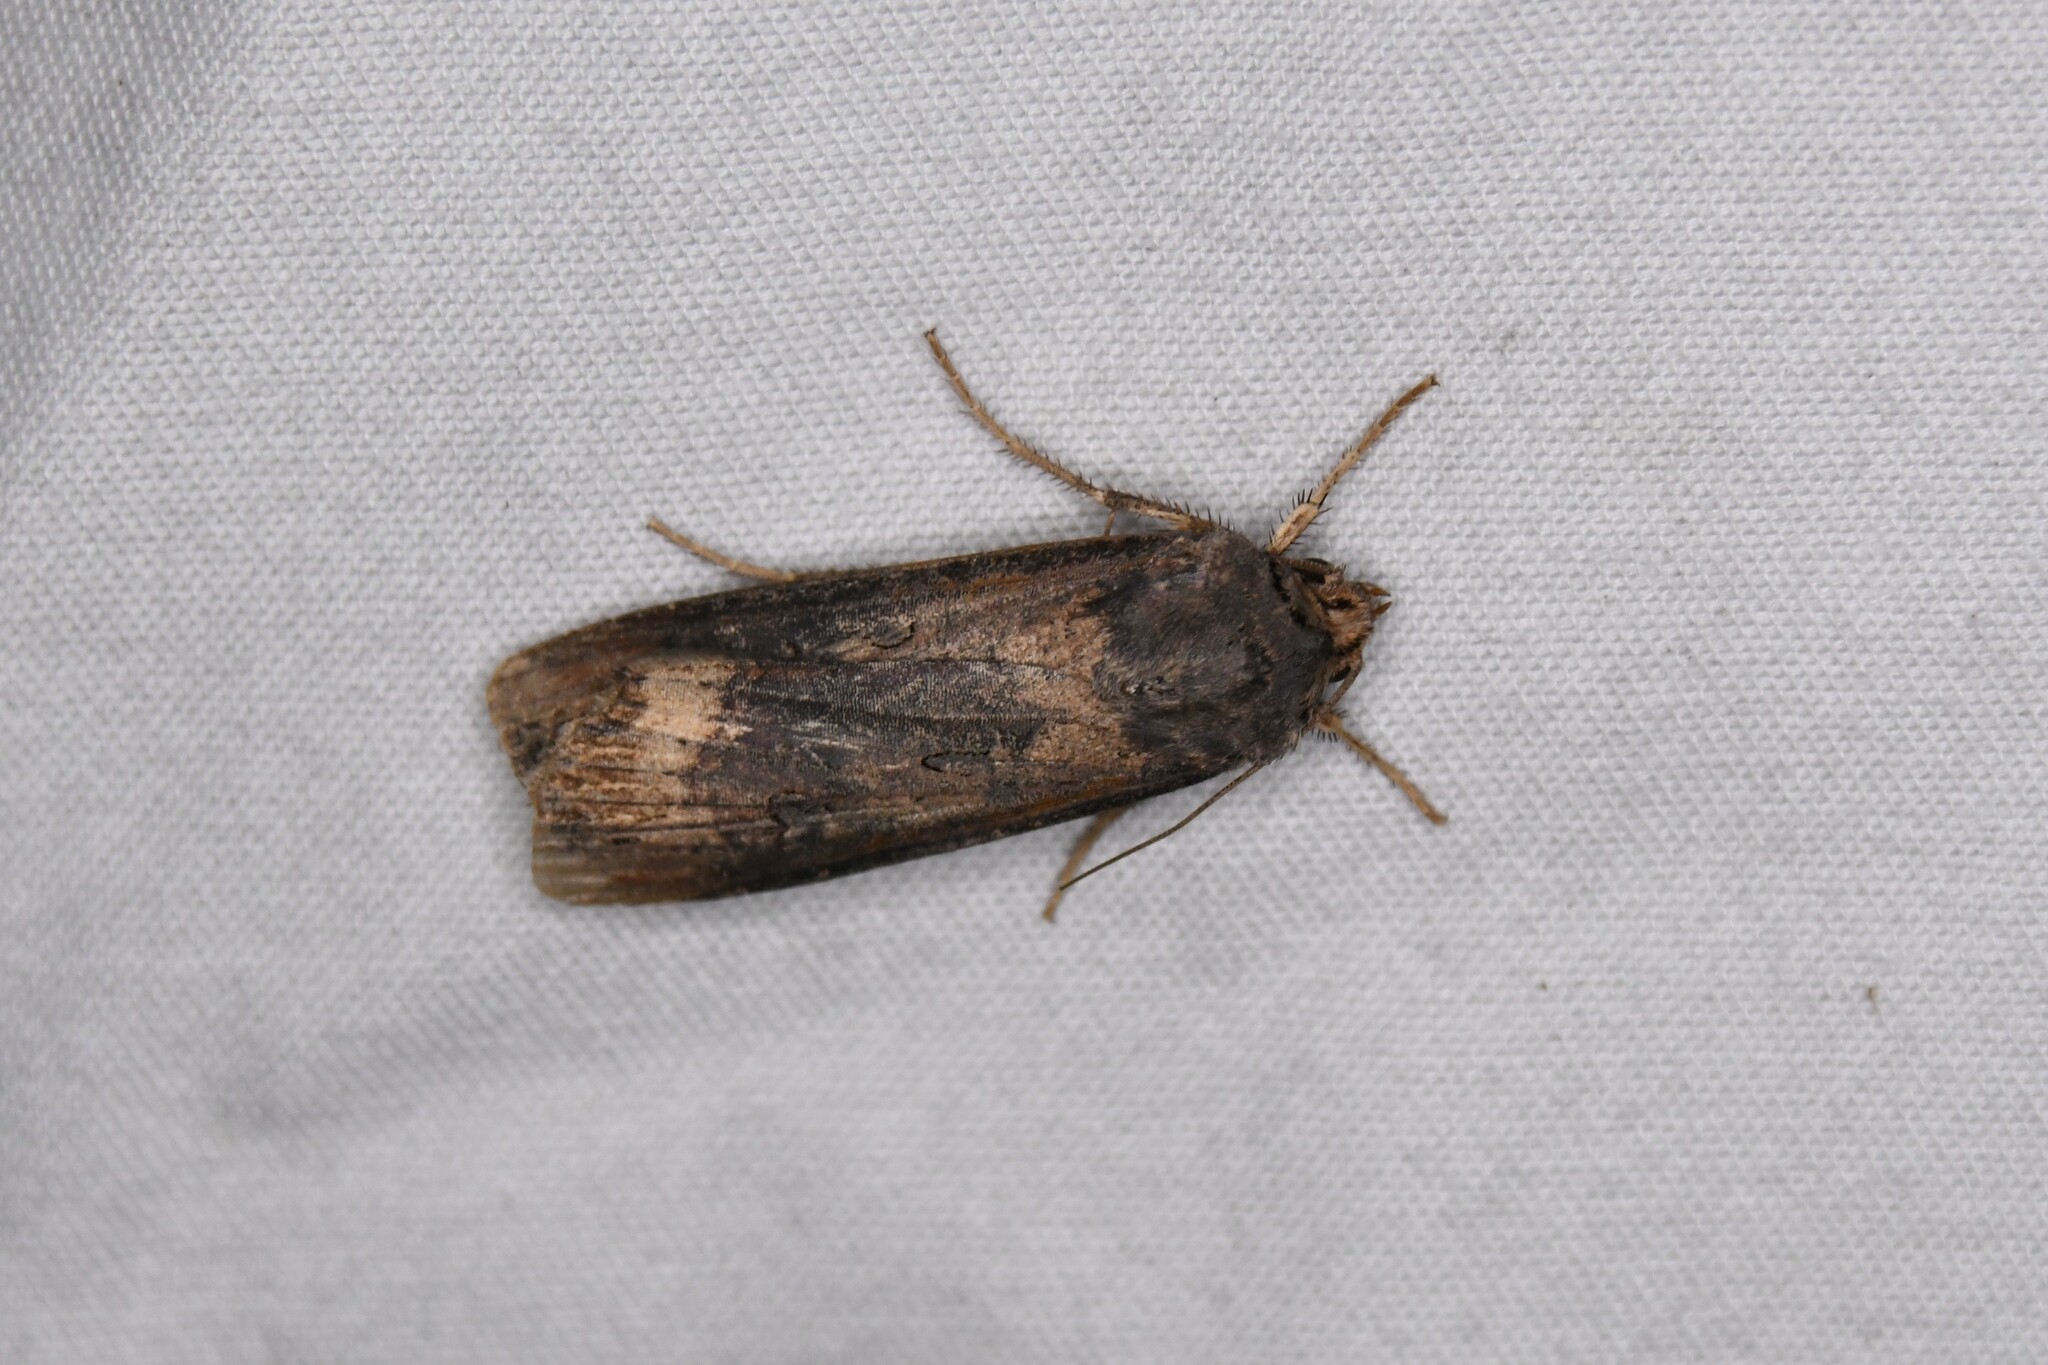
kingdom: Animalia
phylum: Arthropoda
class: Insecta
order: Lepidoptera
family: Noctuidae
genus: Agrotis
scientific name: Agrotis ipsilon
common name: Dark sword-grass
